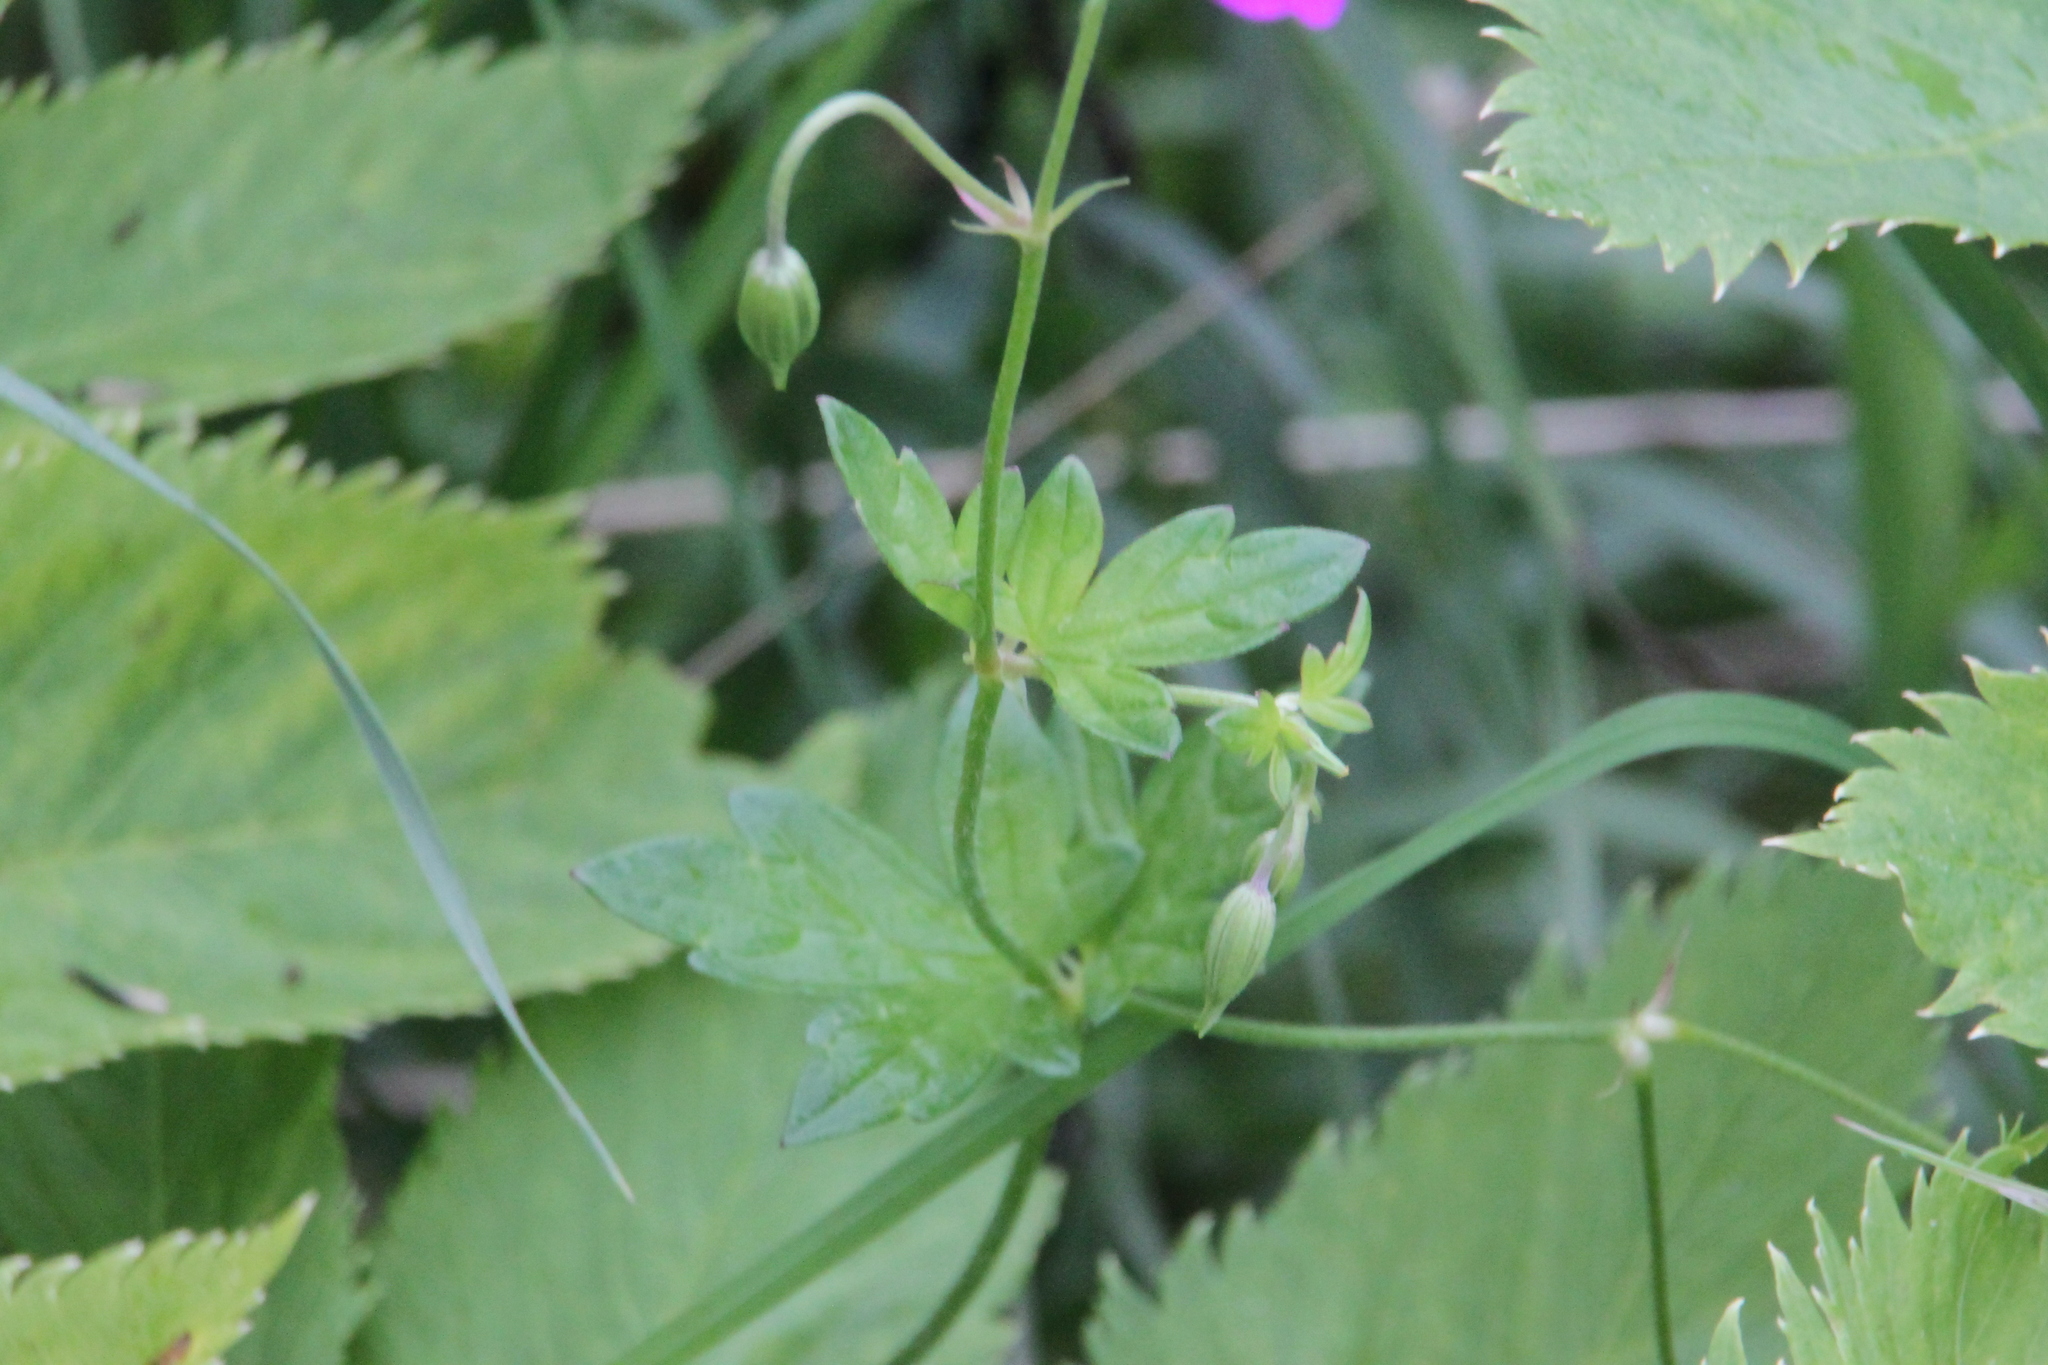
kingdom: Plantae
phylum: Tracheophyta
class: Magnoliopsida
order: Geraniales
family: Geraniaceae
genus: Geranium
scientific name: Geranium palustre
